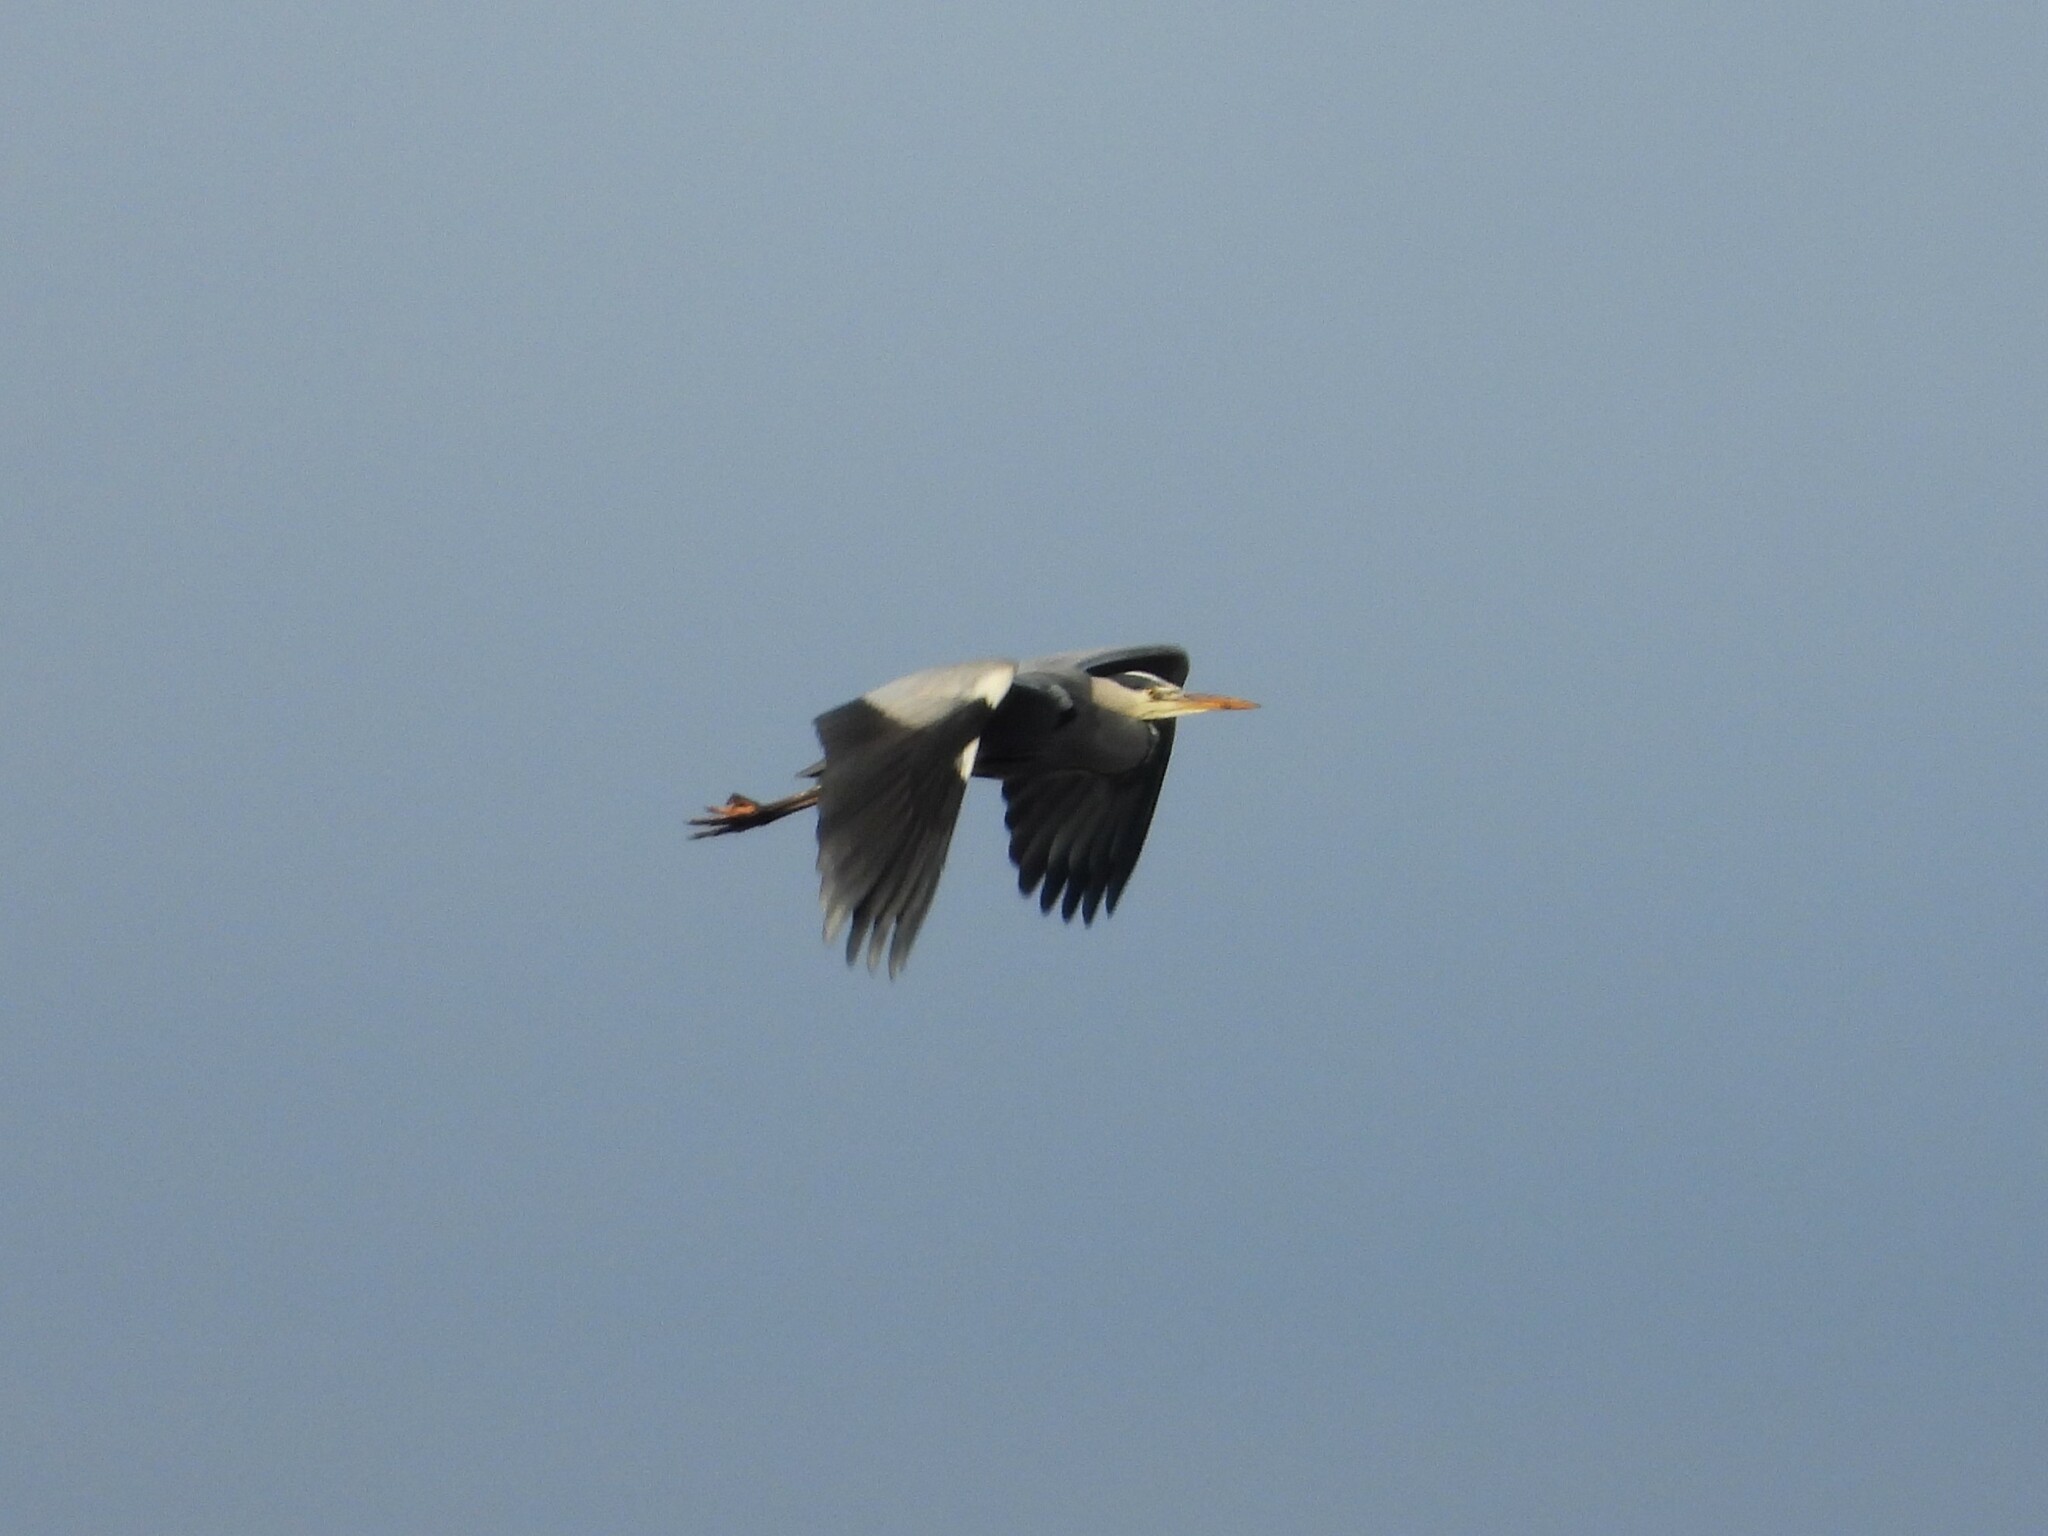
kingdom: Animalia
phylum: Chordata
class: Aves
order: Pelecaniformes
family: Ardeidae
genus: Ardea
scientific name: Ardea cinerea
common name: Grey heron
